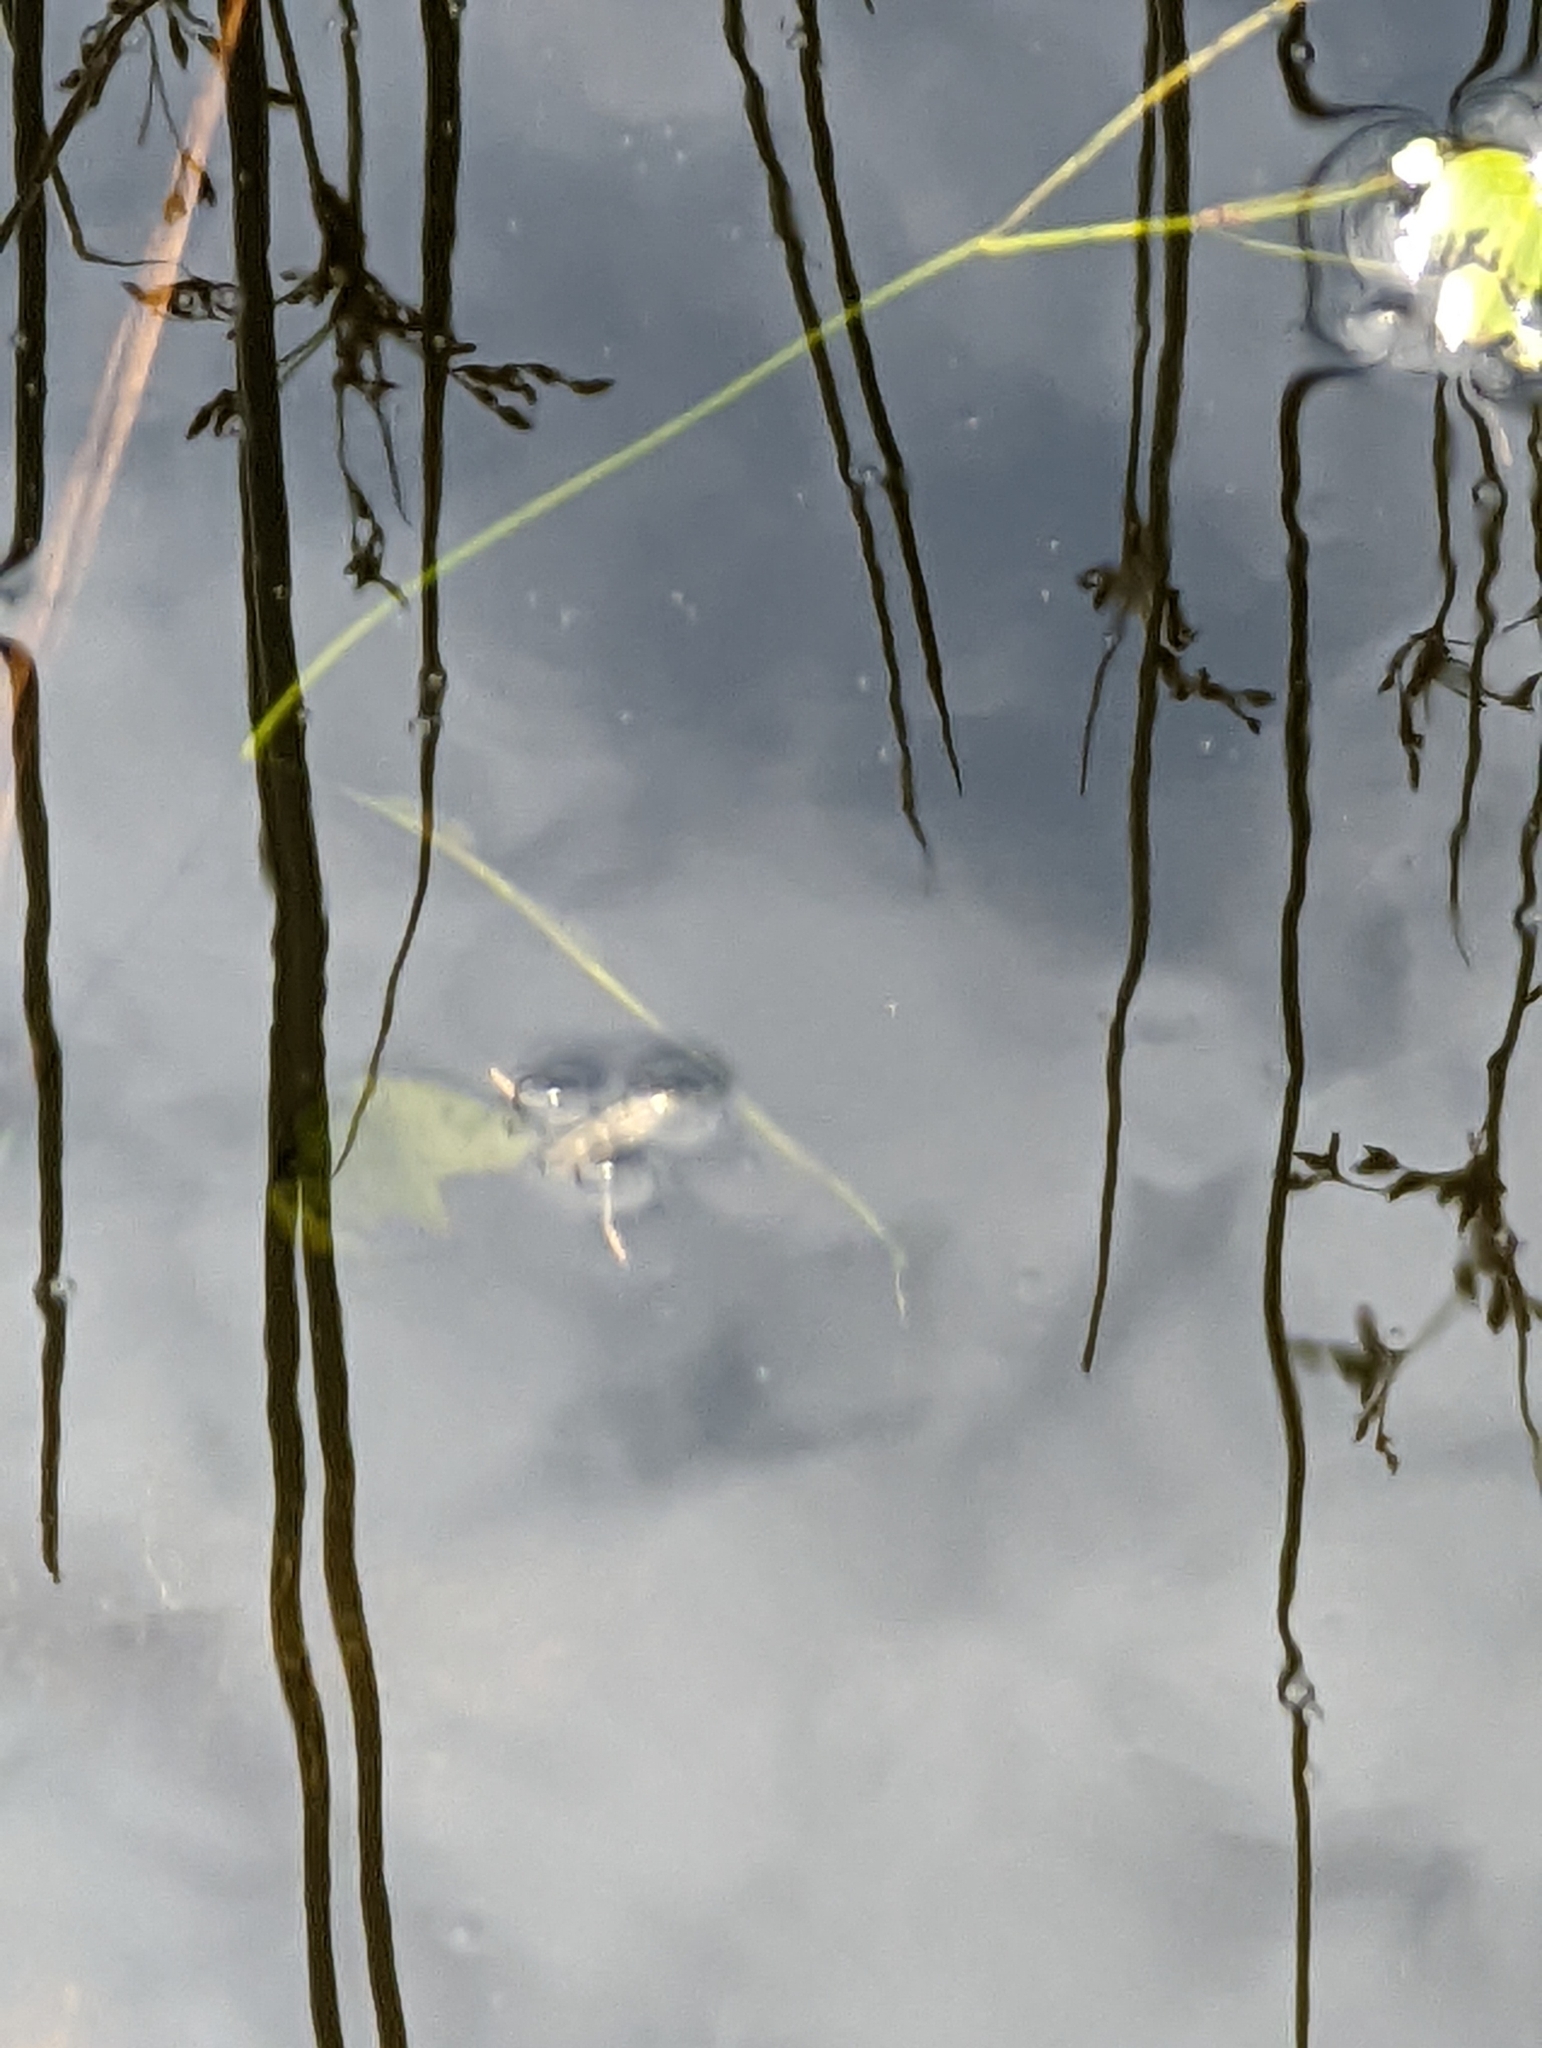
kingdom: Animalia
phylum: Arthropoda
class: Insecta
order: Hemiptera
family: Notonectidae
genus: Notonecta
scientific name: Notonecta
